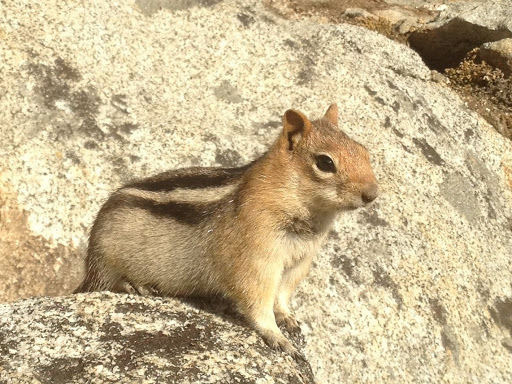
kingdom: Animalia
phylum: Chordata
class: Mammalia
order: Rodentia
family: Sciuridae
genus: Callospermophilus
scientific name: Callospermophilus lateralis
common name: Golden-mantled ground squirrel
